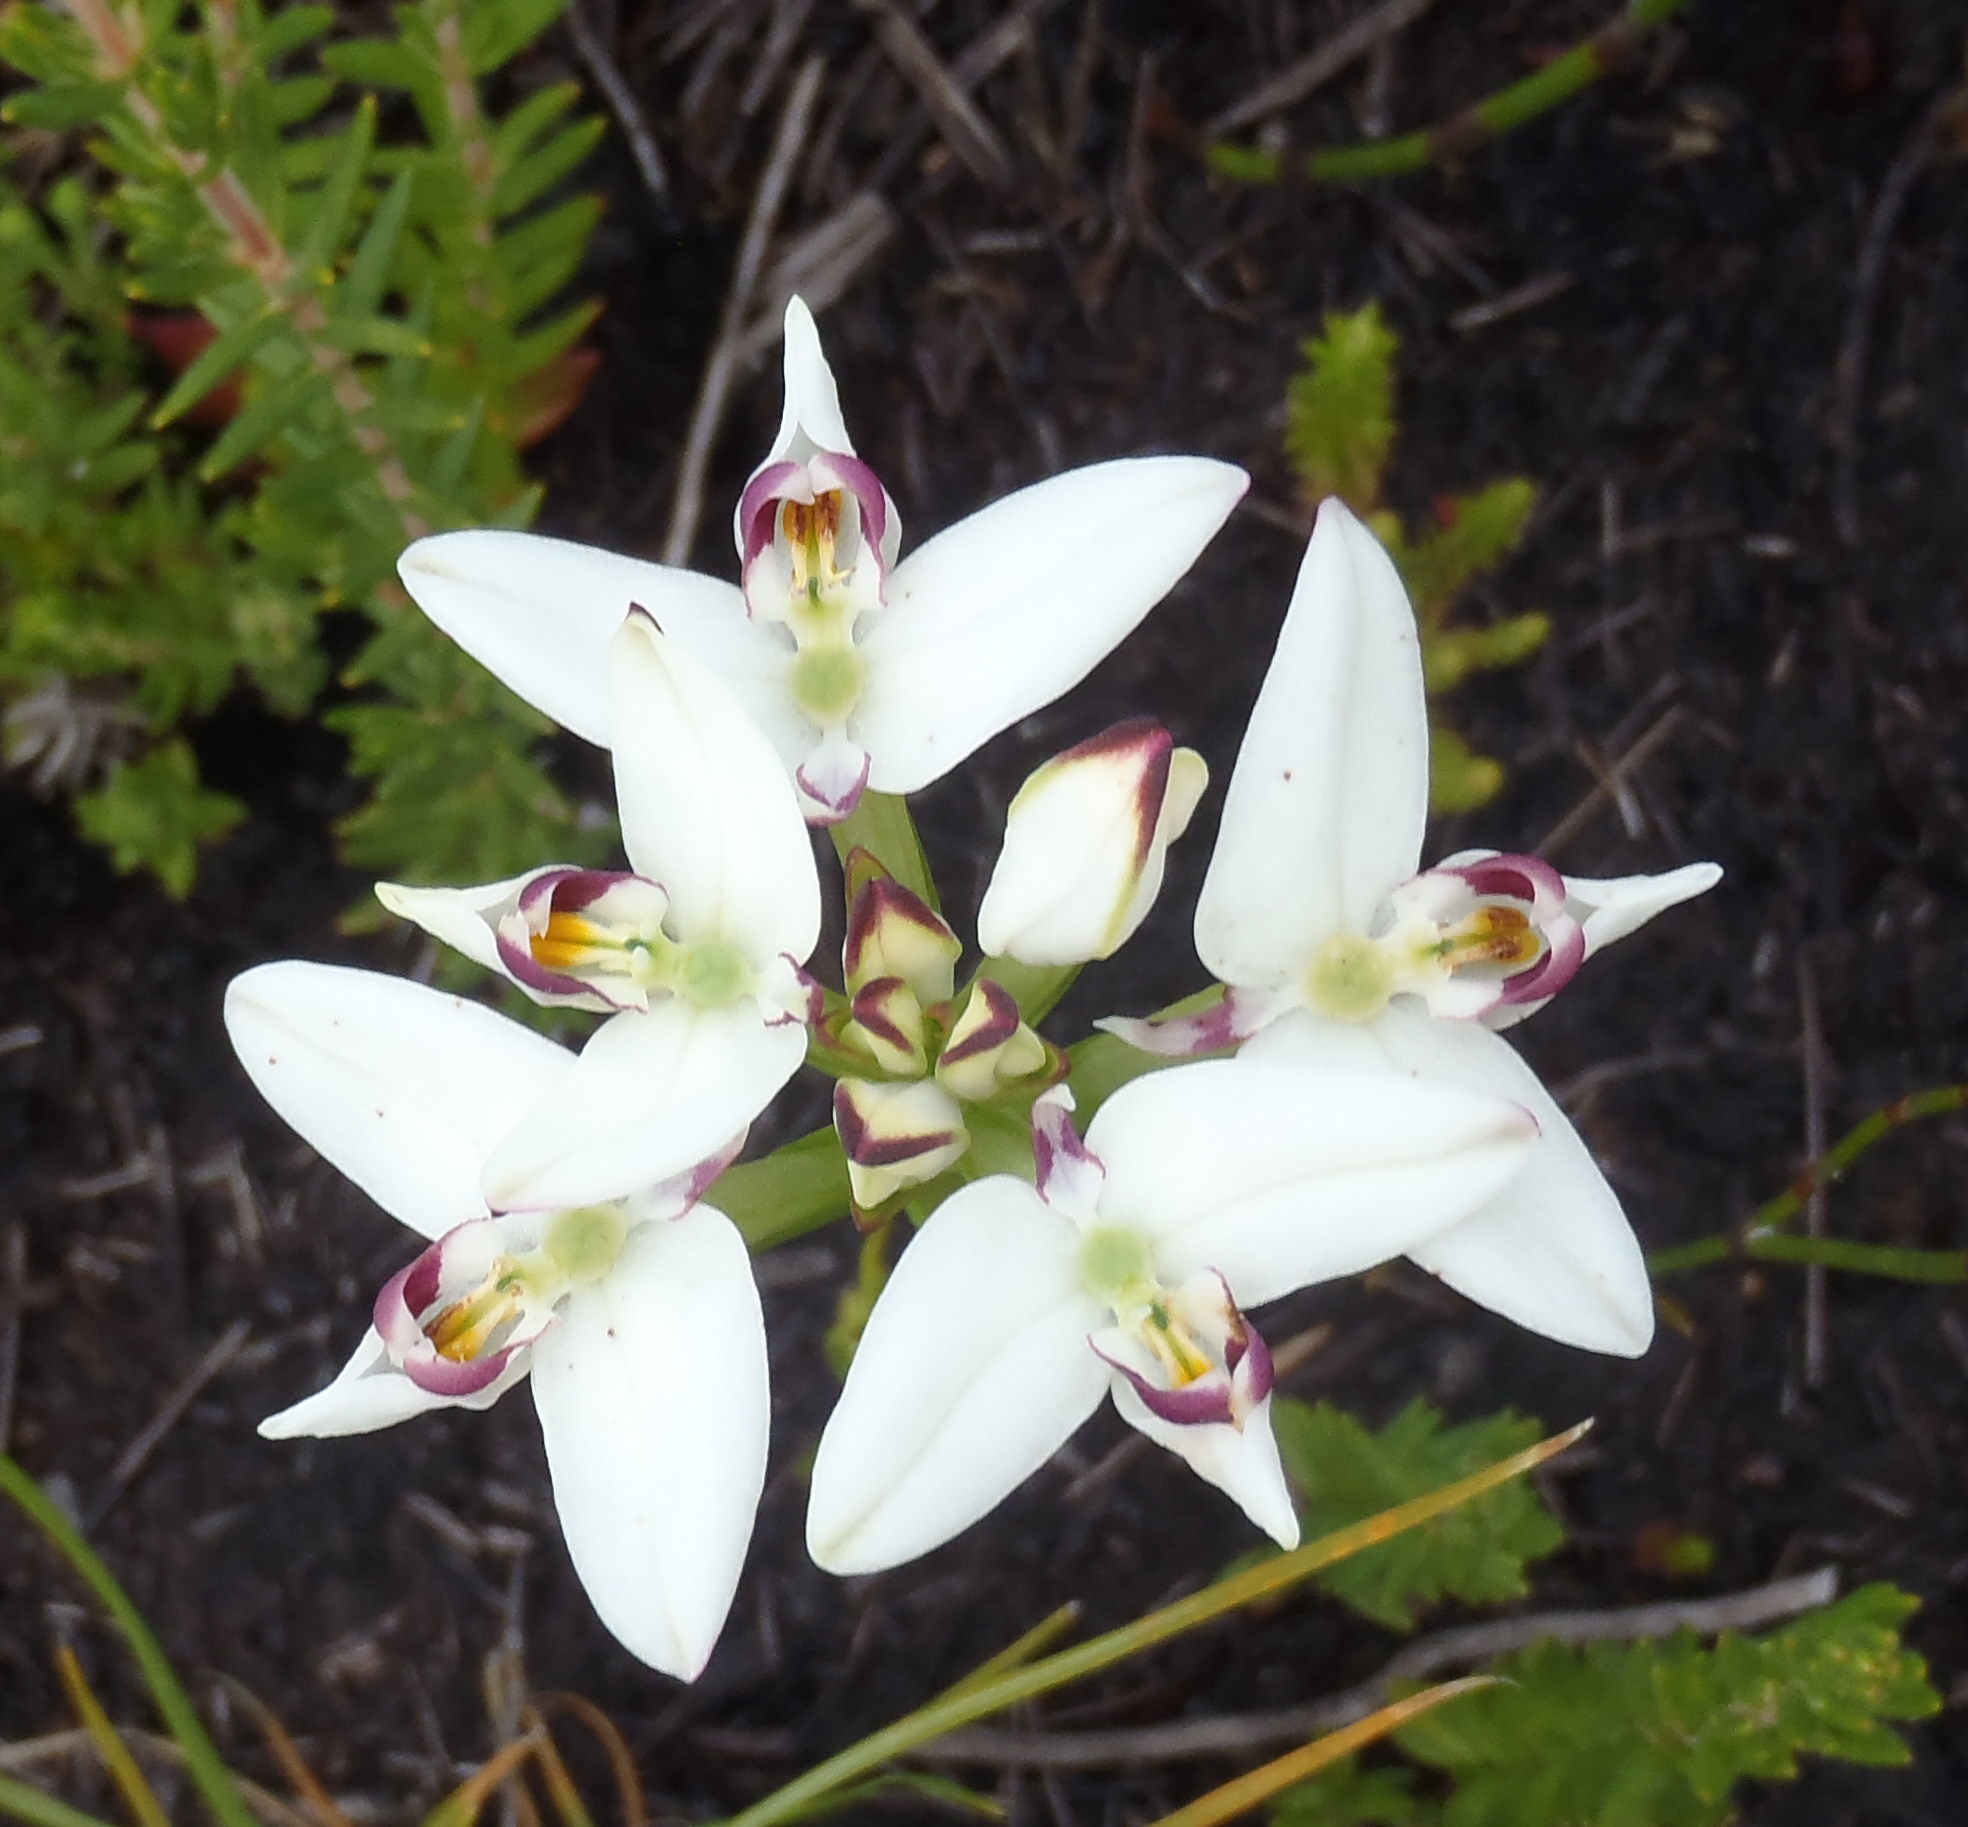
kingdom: Plantae
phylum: Tracheophyta
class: Liliopsida
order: Asparagales
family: Orchidaceae
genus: Disa
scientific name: Disa bivalvata
